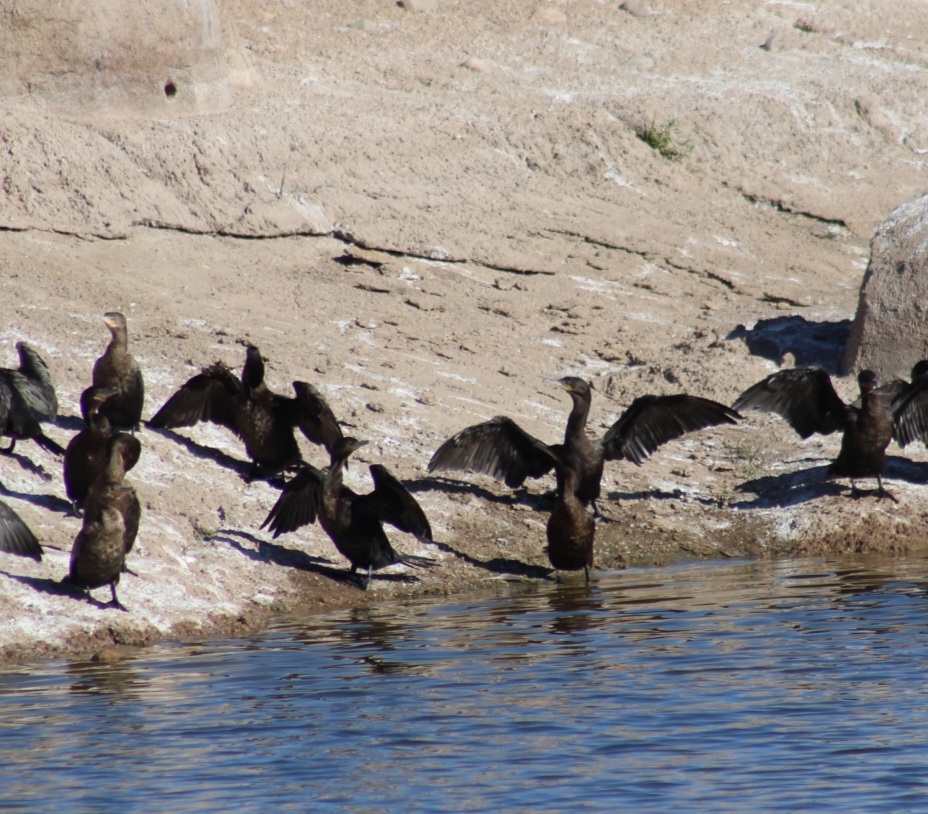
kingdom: Animalia
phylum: Chordata
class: Aves
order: Suliformes
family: Phalacrocoracidae
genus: Phalacrocorax
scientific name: Phalacrocorax brasilianus
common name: Neotropic cormorant
